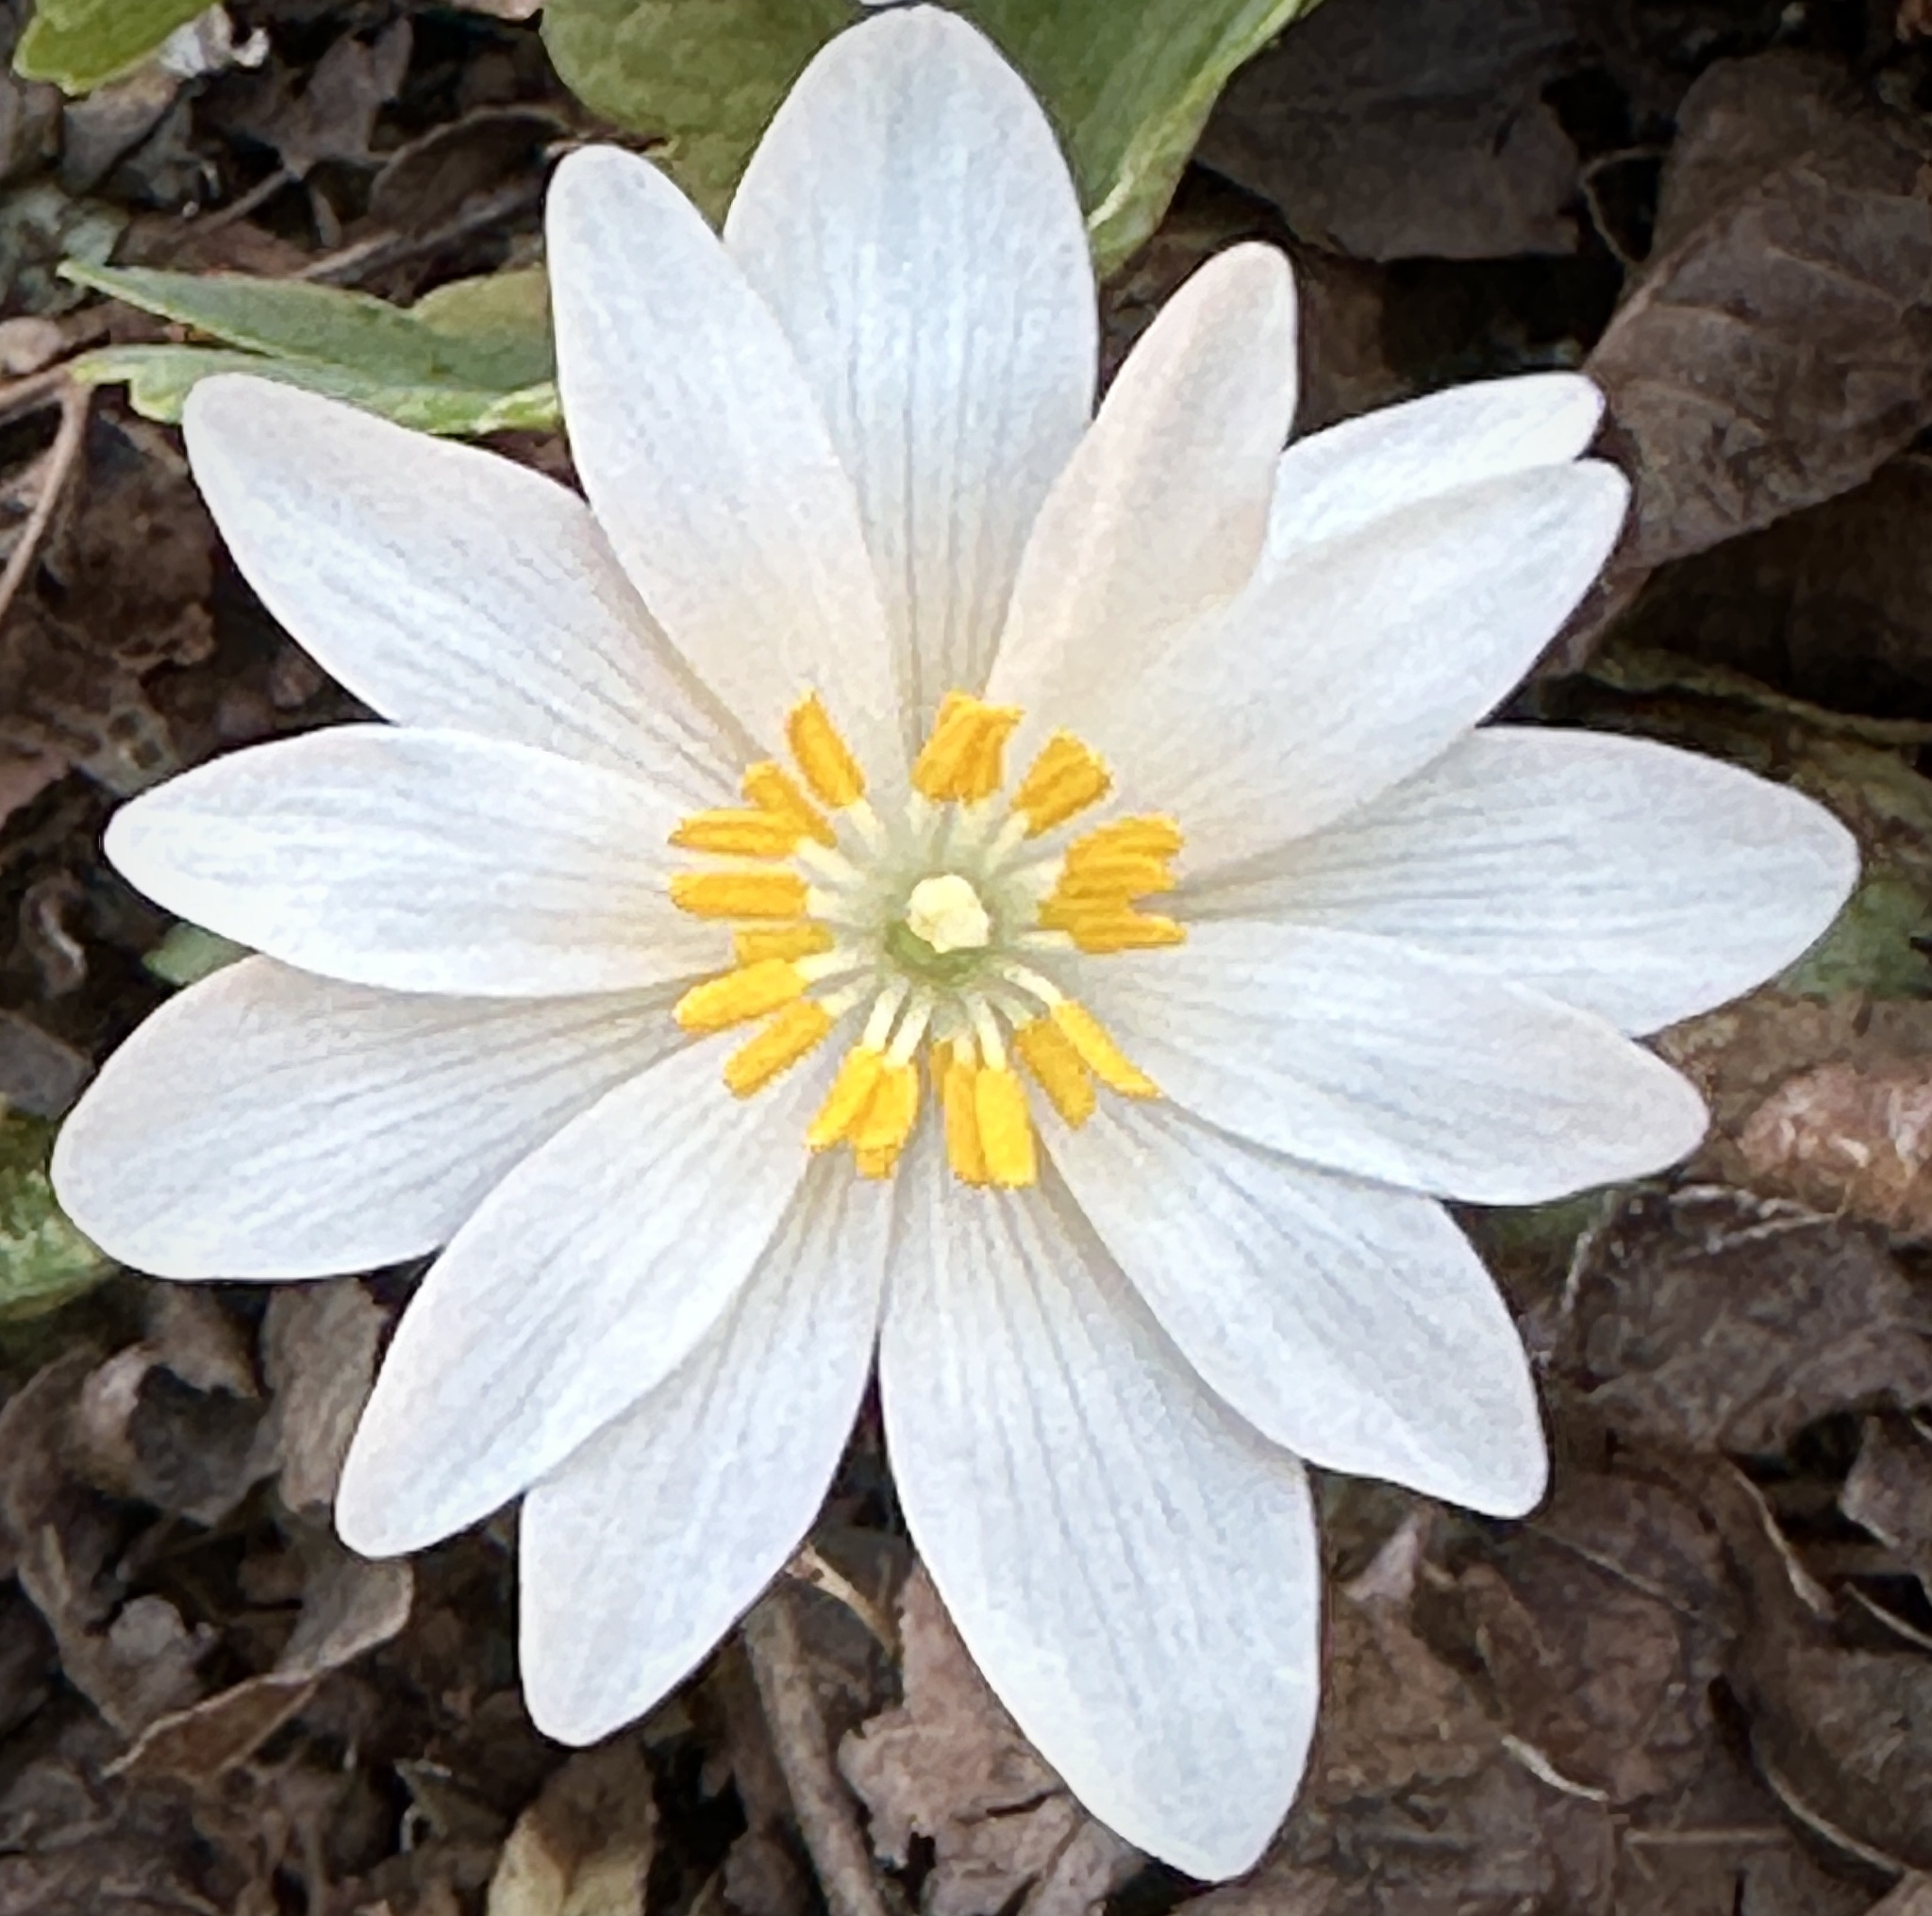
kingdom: Plantae
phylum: Tracheophyta
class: Magnoliopsida
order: Ranunculales
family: Papaveraceae
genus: Sanguinaria
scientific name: Sanguinaria canadensis
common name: Bloodroot
